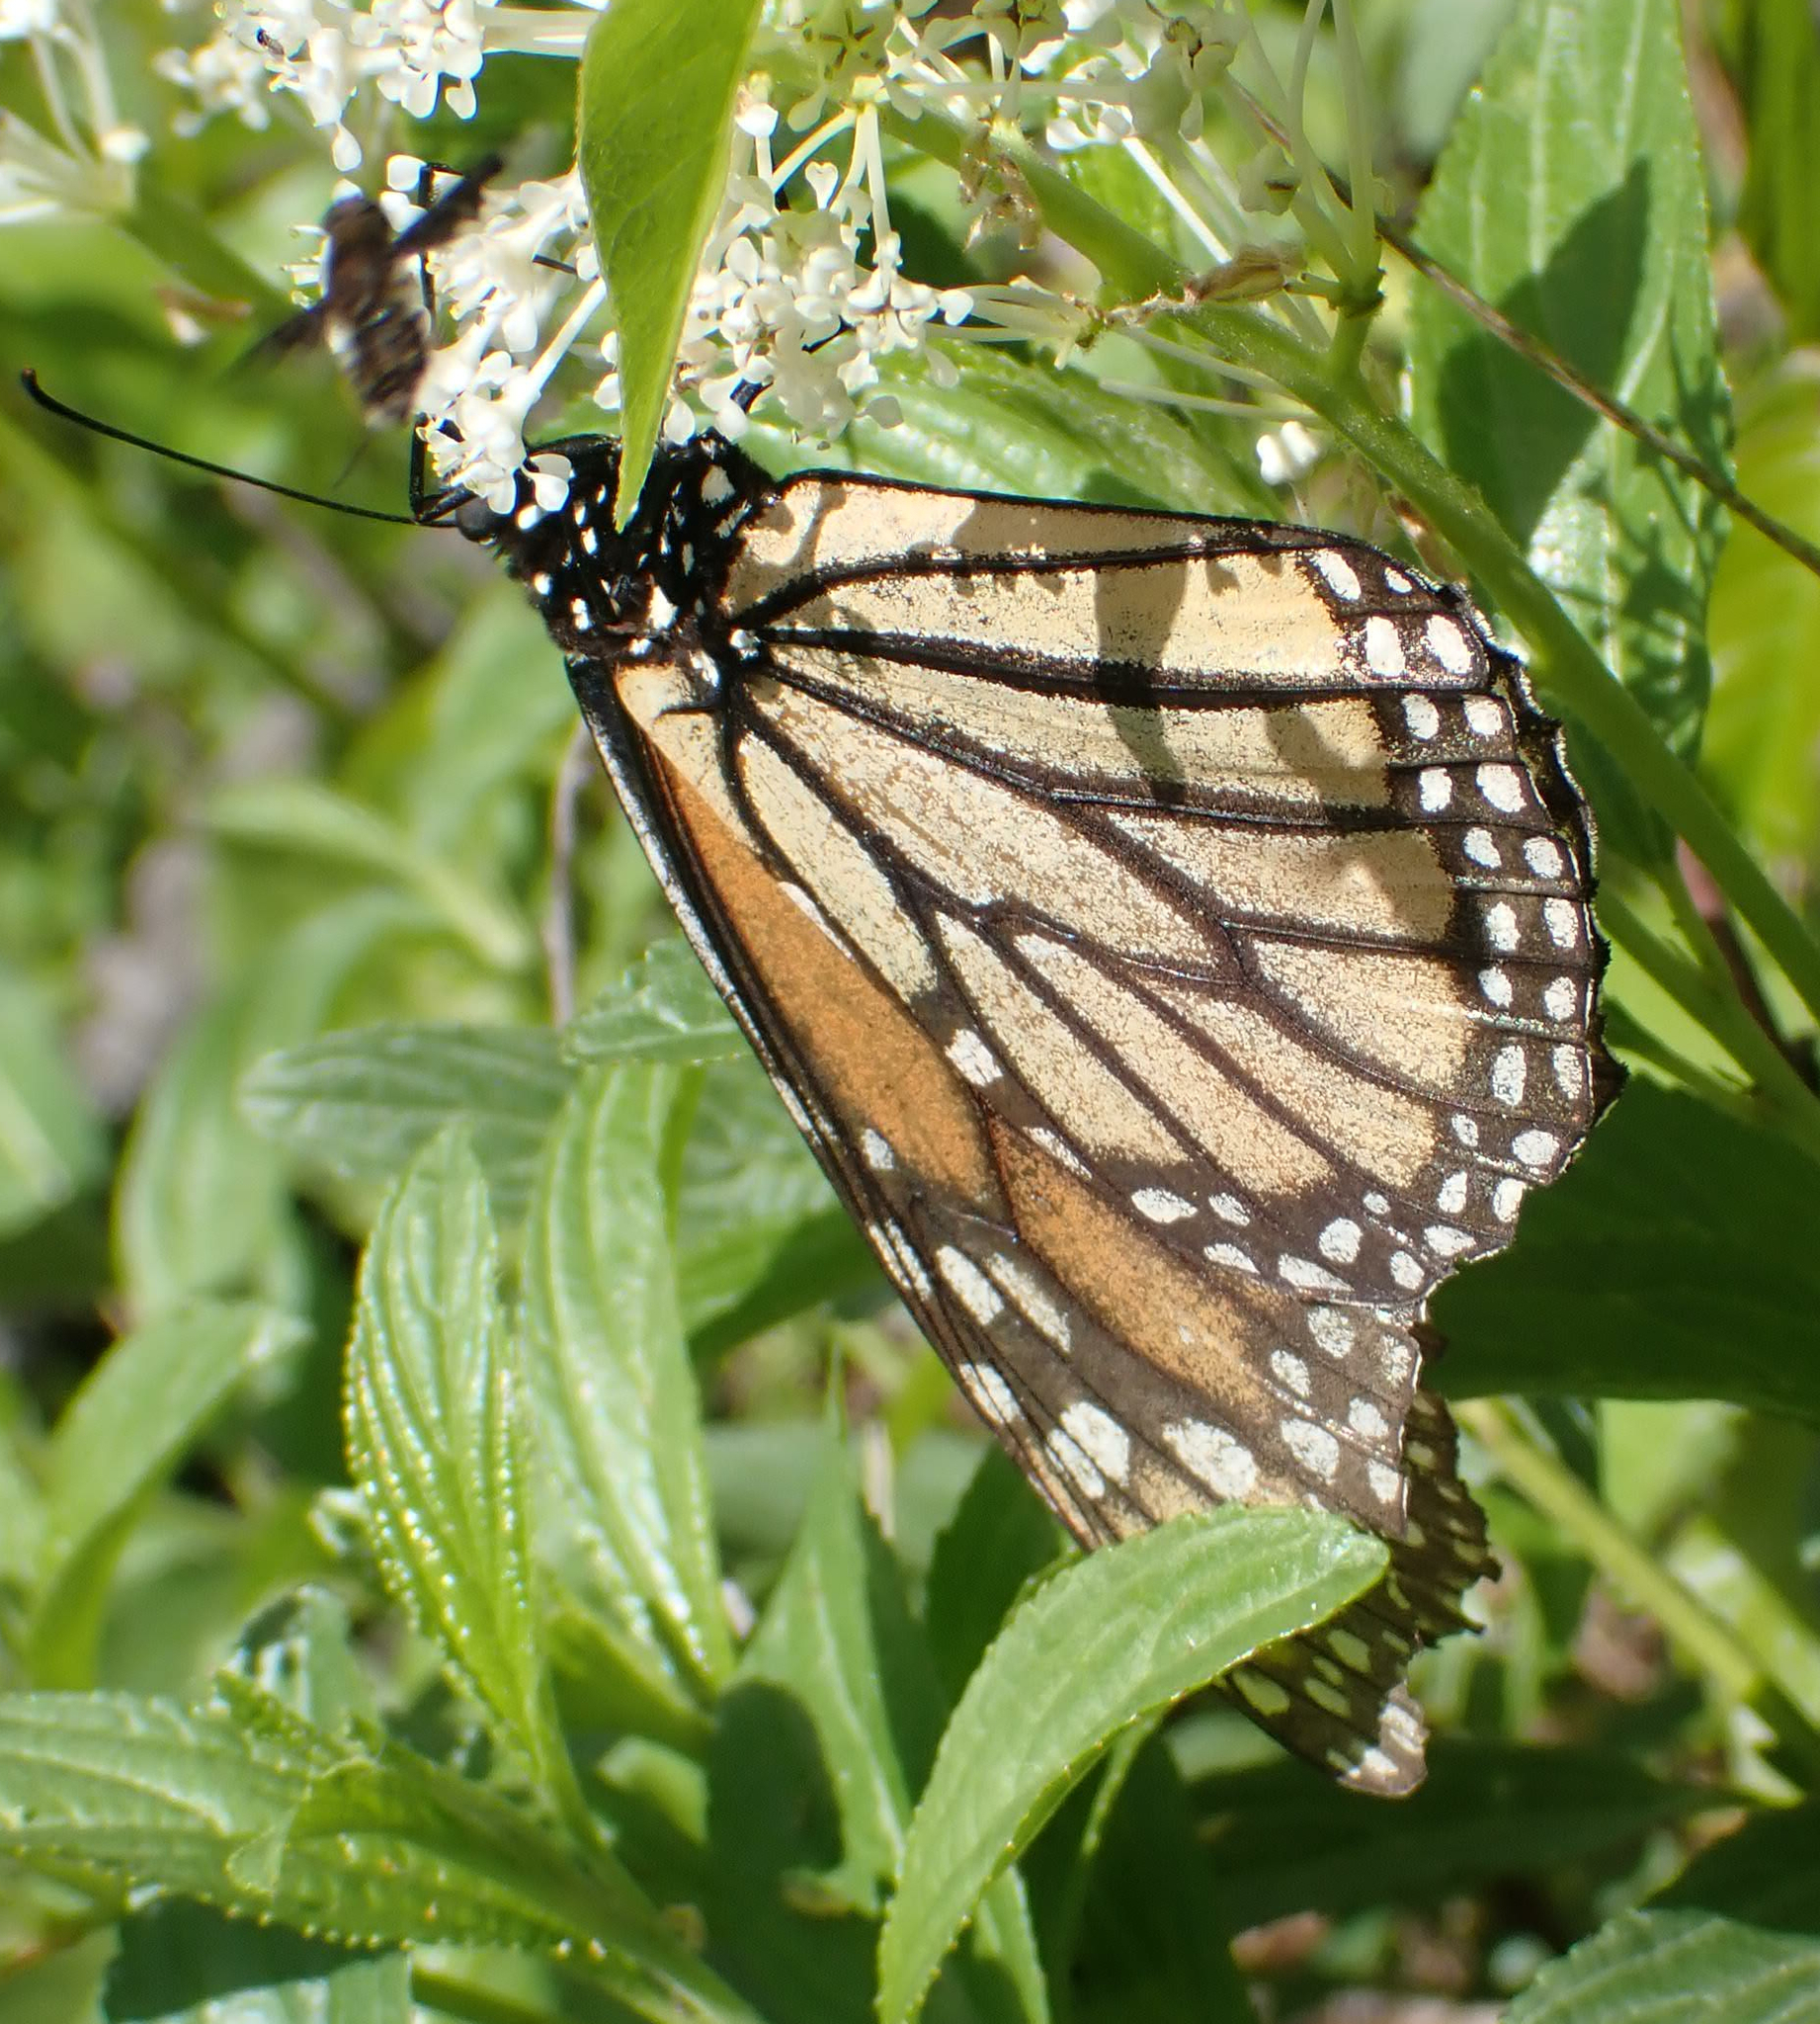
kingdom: Animalia
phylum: Arthropoda
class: Insecta
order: Lepidoptera
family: Nymphalidae
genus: Danaus
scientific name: Danaus plexippus
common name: Monarch
